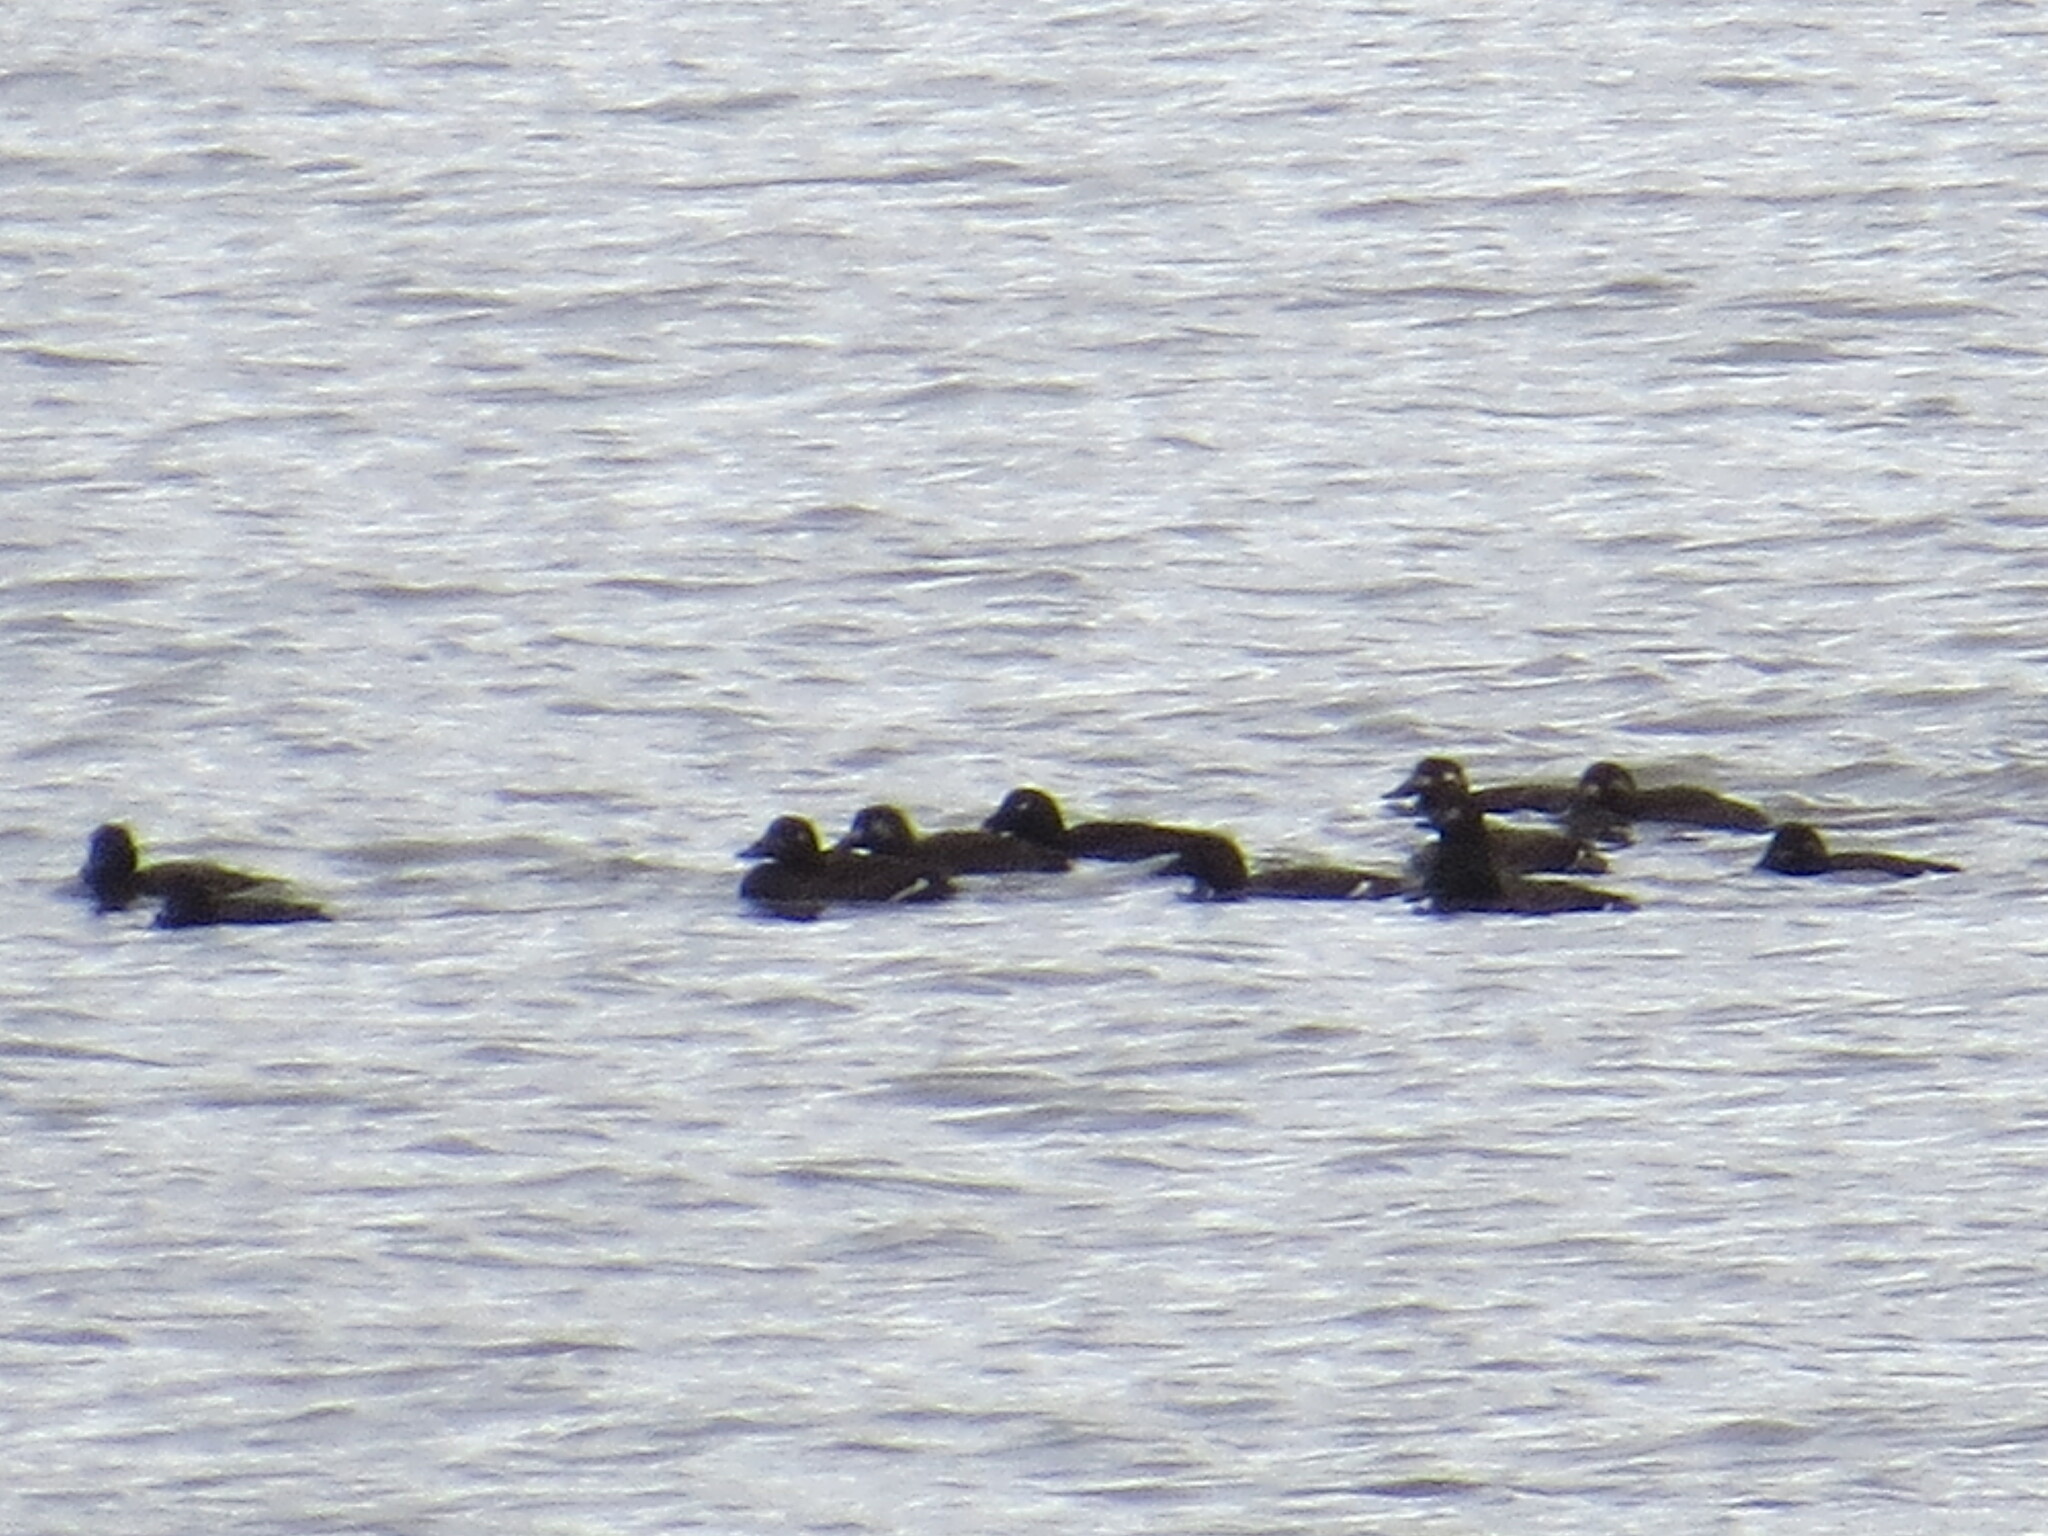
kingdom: Animalia
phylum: Chordata
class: Aves
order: Anseriformes
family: Anatidae
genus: Melanitta
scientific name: Melanitta deglandi
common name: White-winged scoter
